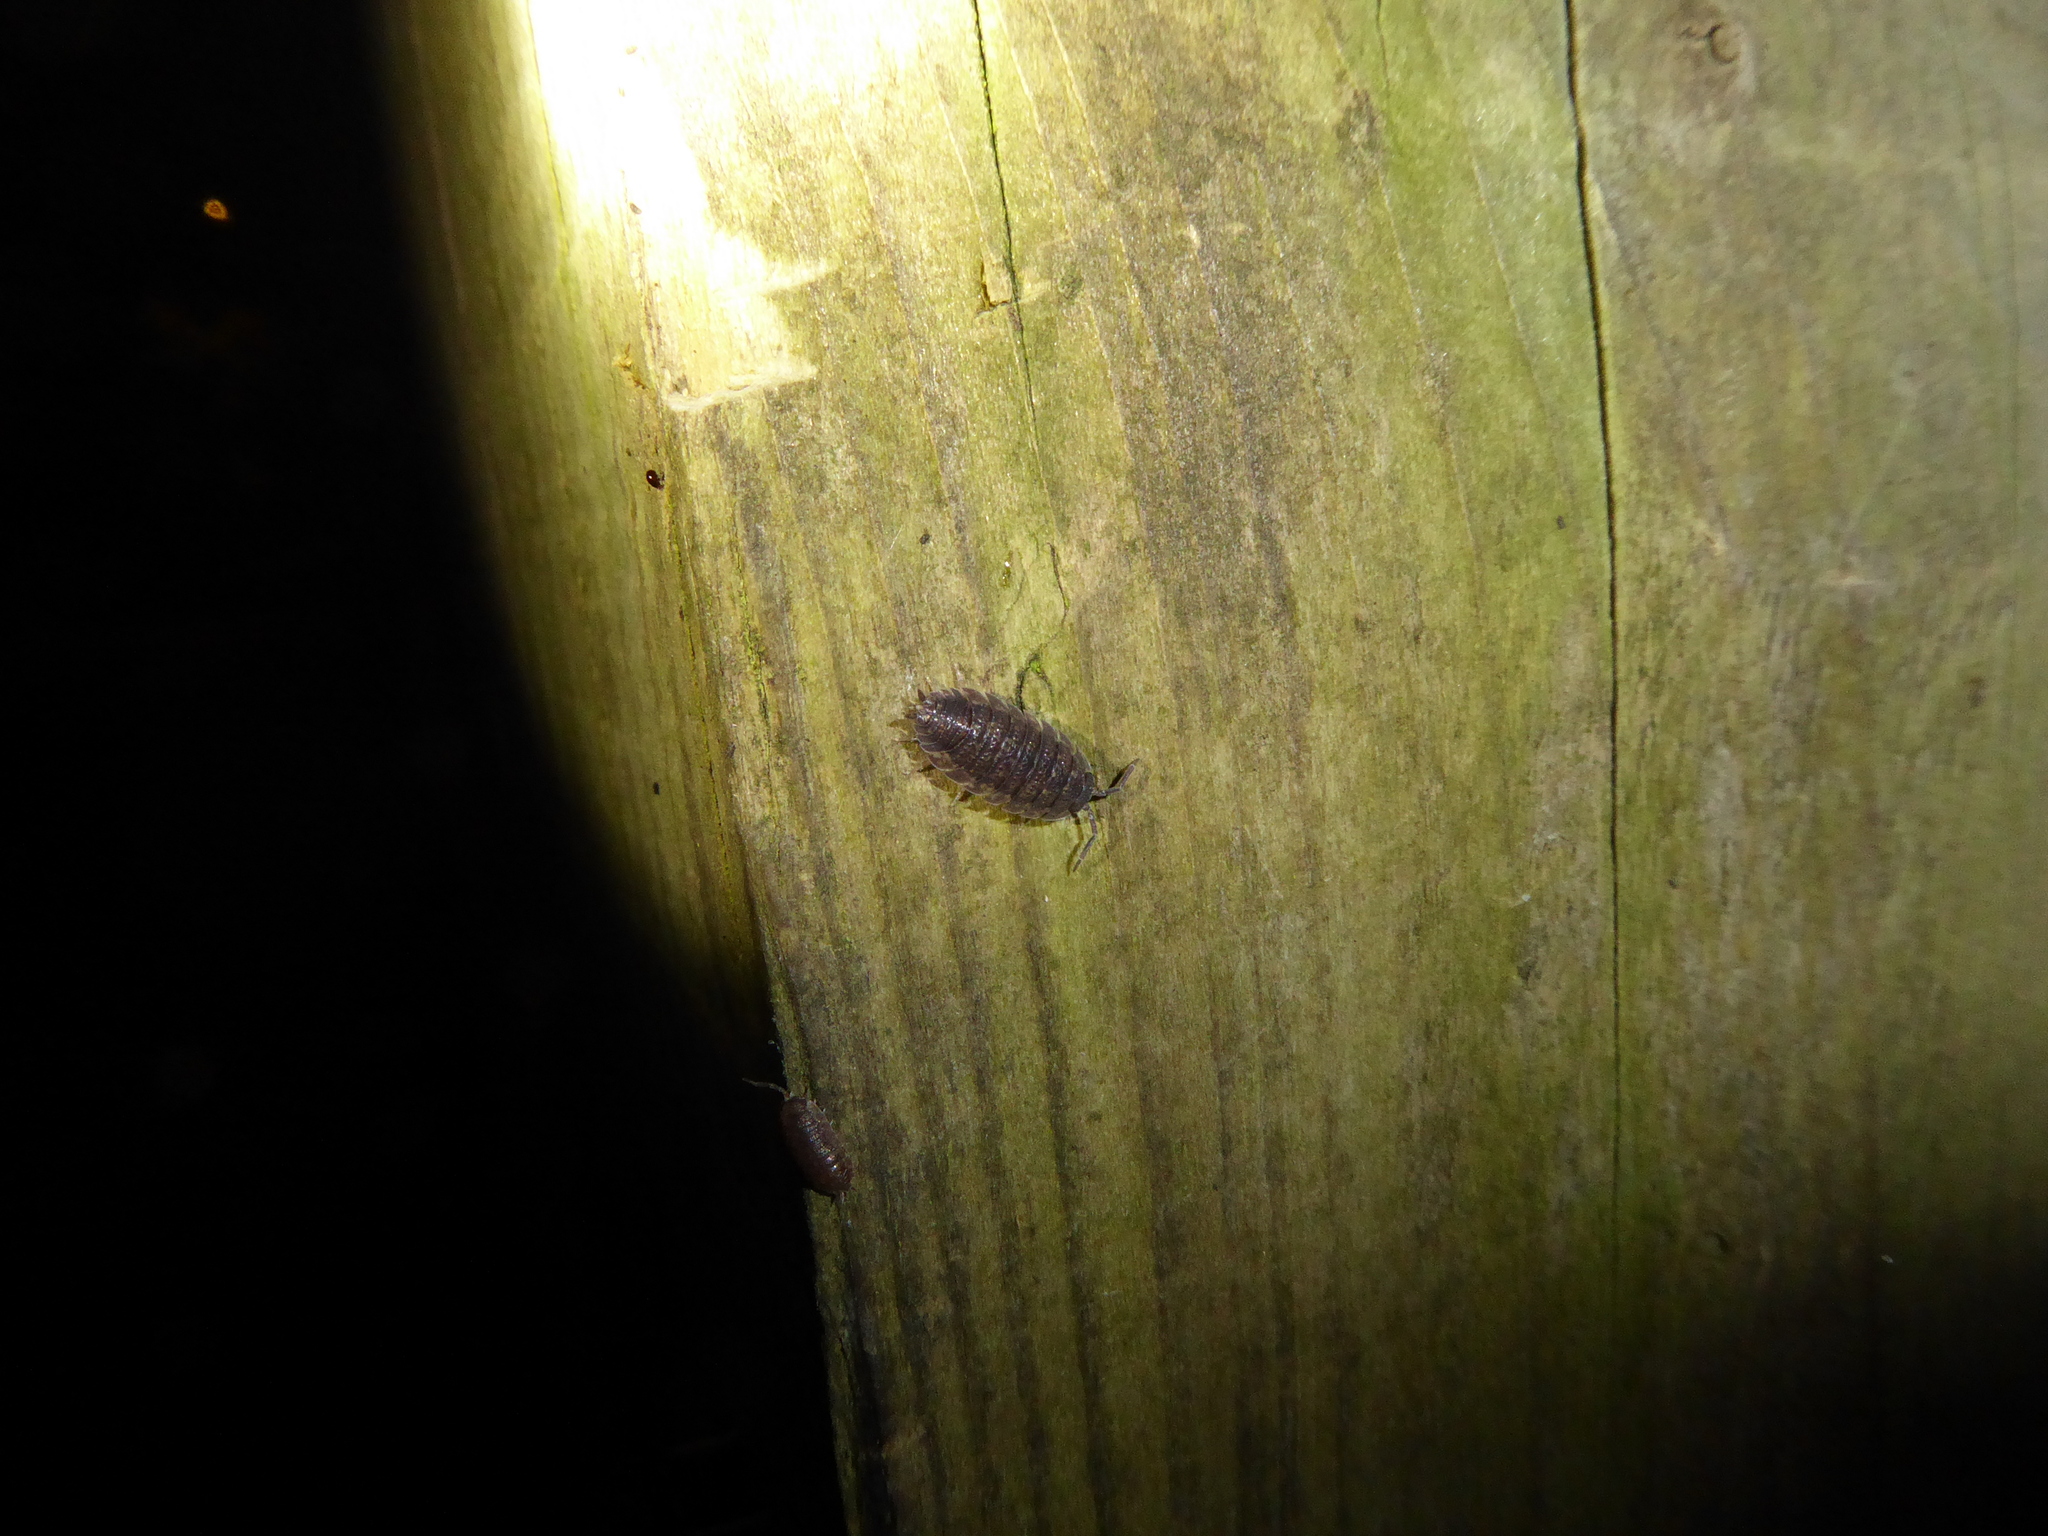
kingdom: Animalia
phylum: Arthropoda
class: Malacostraca
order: Isopoda
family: Porcellionidae
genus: Porcellio
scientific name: Porcellio scaber
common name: Common rough woodlouse
